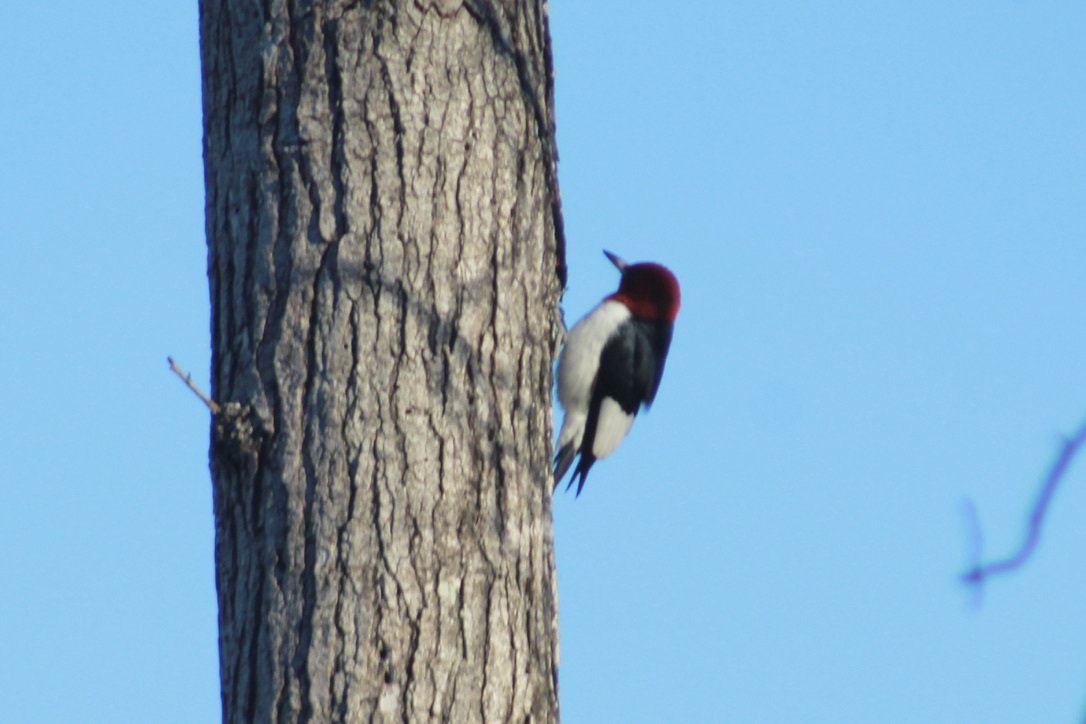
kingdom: Animalia
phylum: Chordata
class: Aves
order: Piciformes
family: Picidae
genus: Melanerpes
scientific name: Melanerpes erythrocephalus
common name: Red-headed woodpecker
